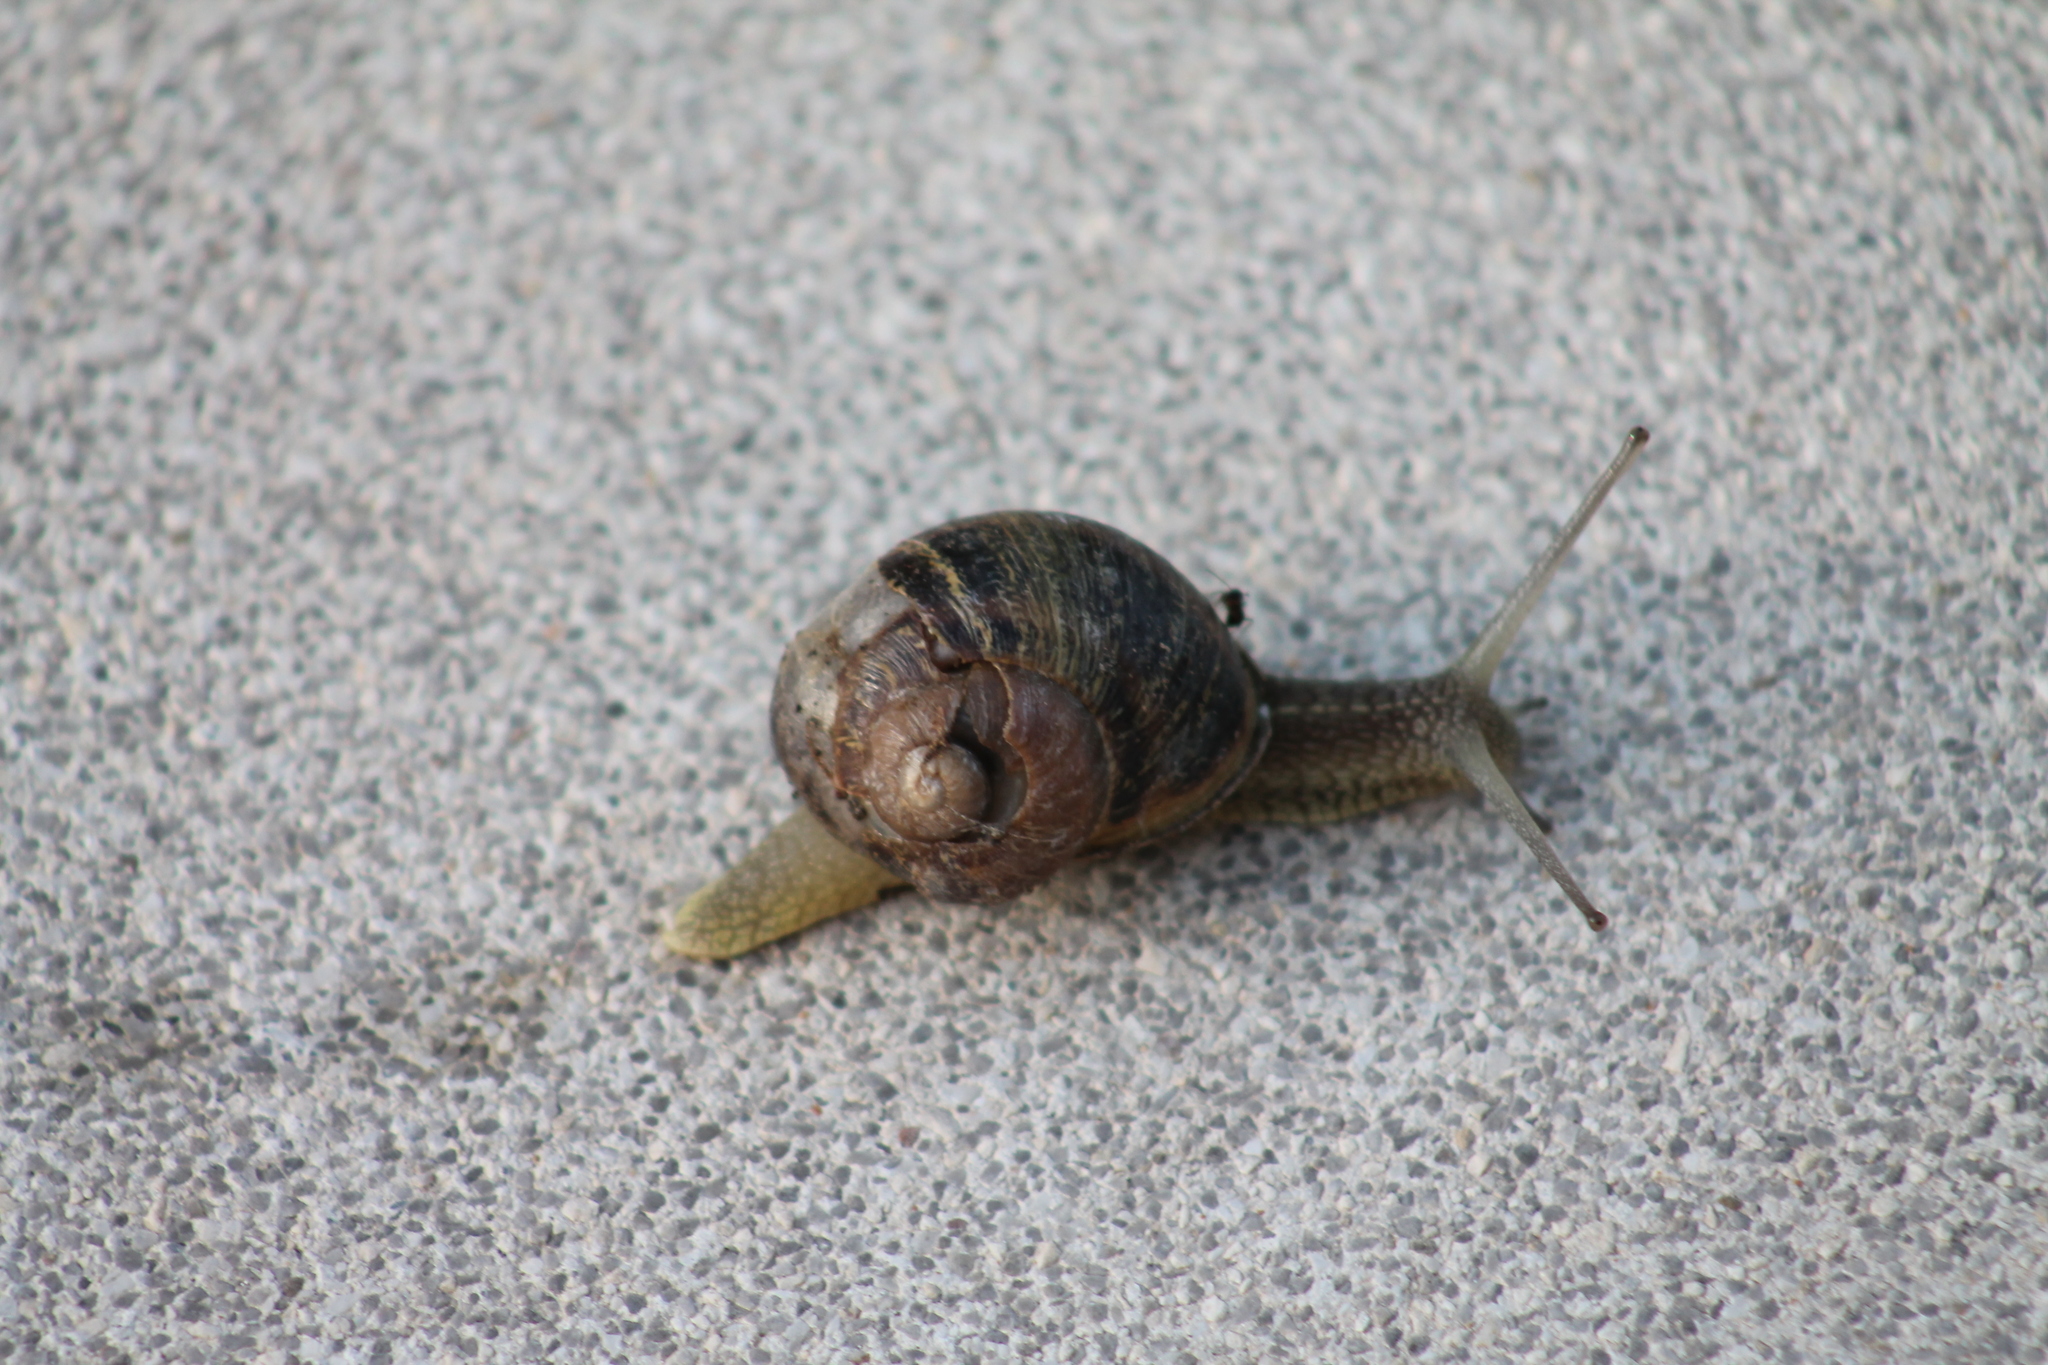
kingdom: Animalia
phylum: Mollusca
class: Gastropoda
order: Stylommatophora
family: Helicidae
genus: Cornu
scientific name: Cornu aspersum
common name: Brown garden snail
